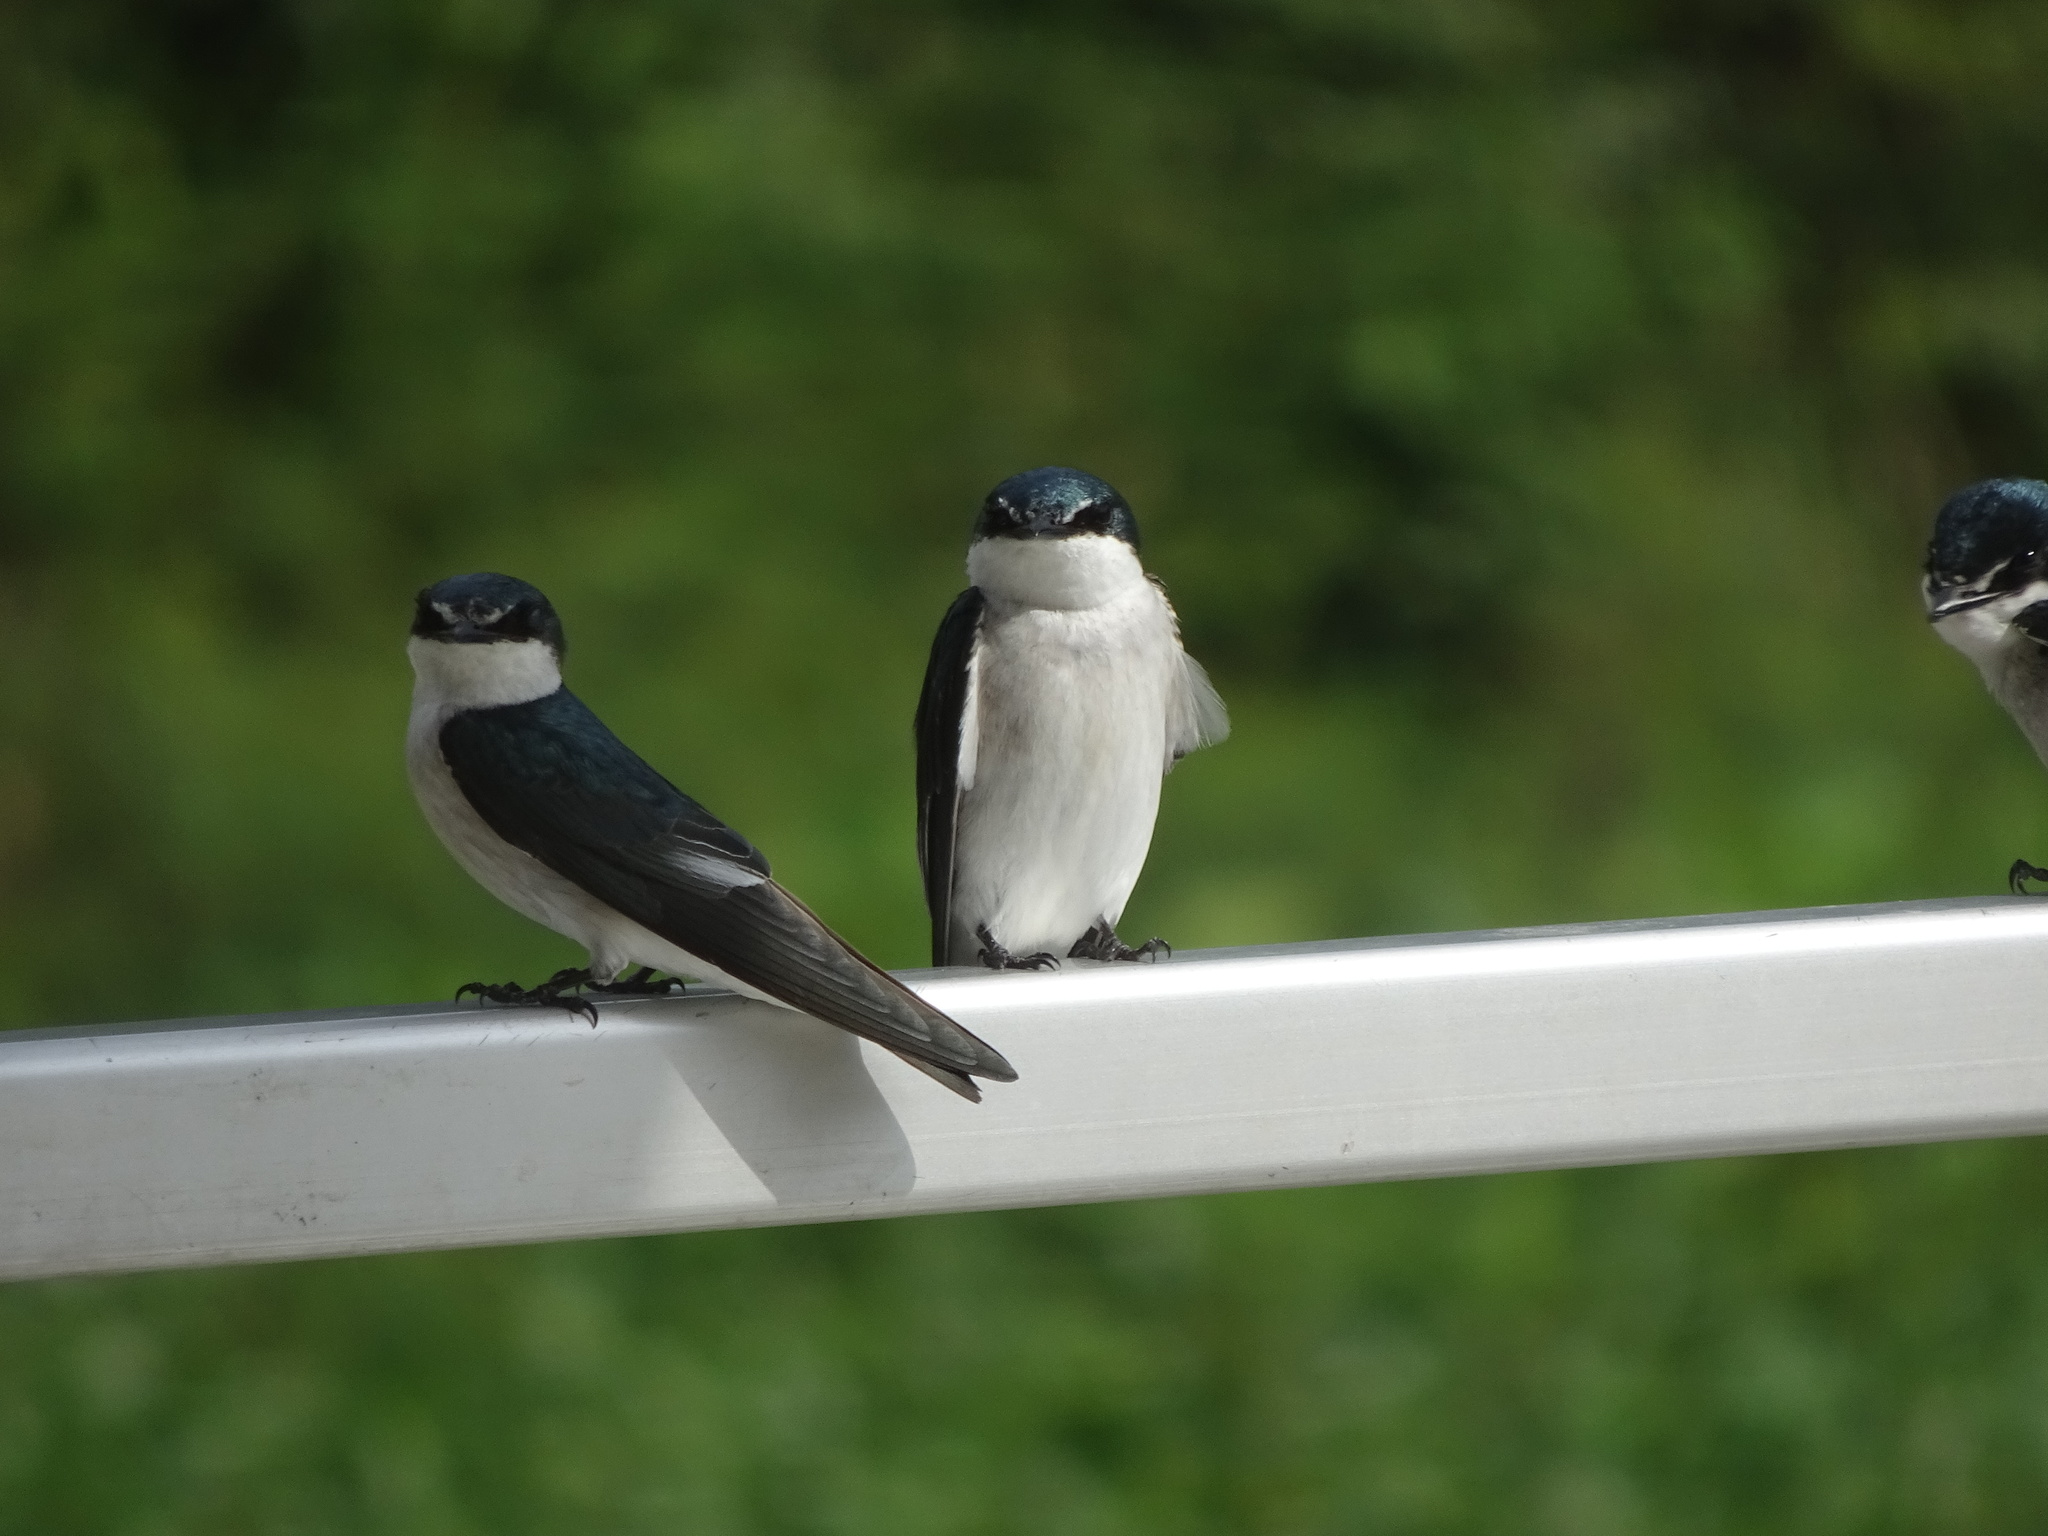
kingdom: Animalia
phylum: Chordata
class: Aves
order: Passeriformes
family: Hirundinidae
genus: Tachycineta
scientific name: Tachycineta albilinea
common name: Mangrove swallow
